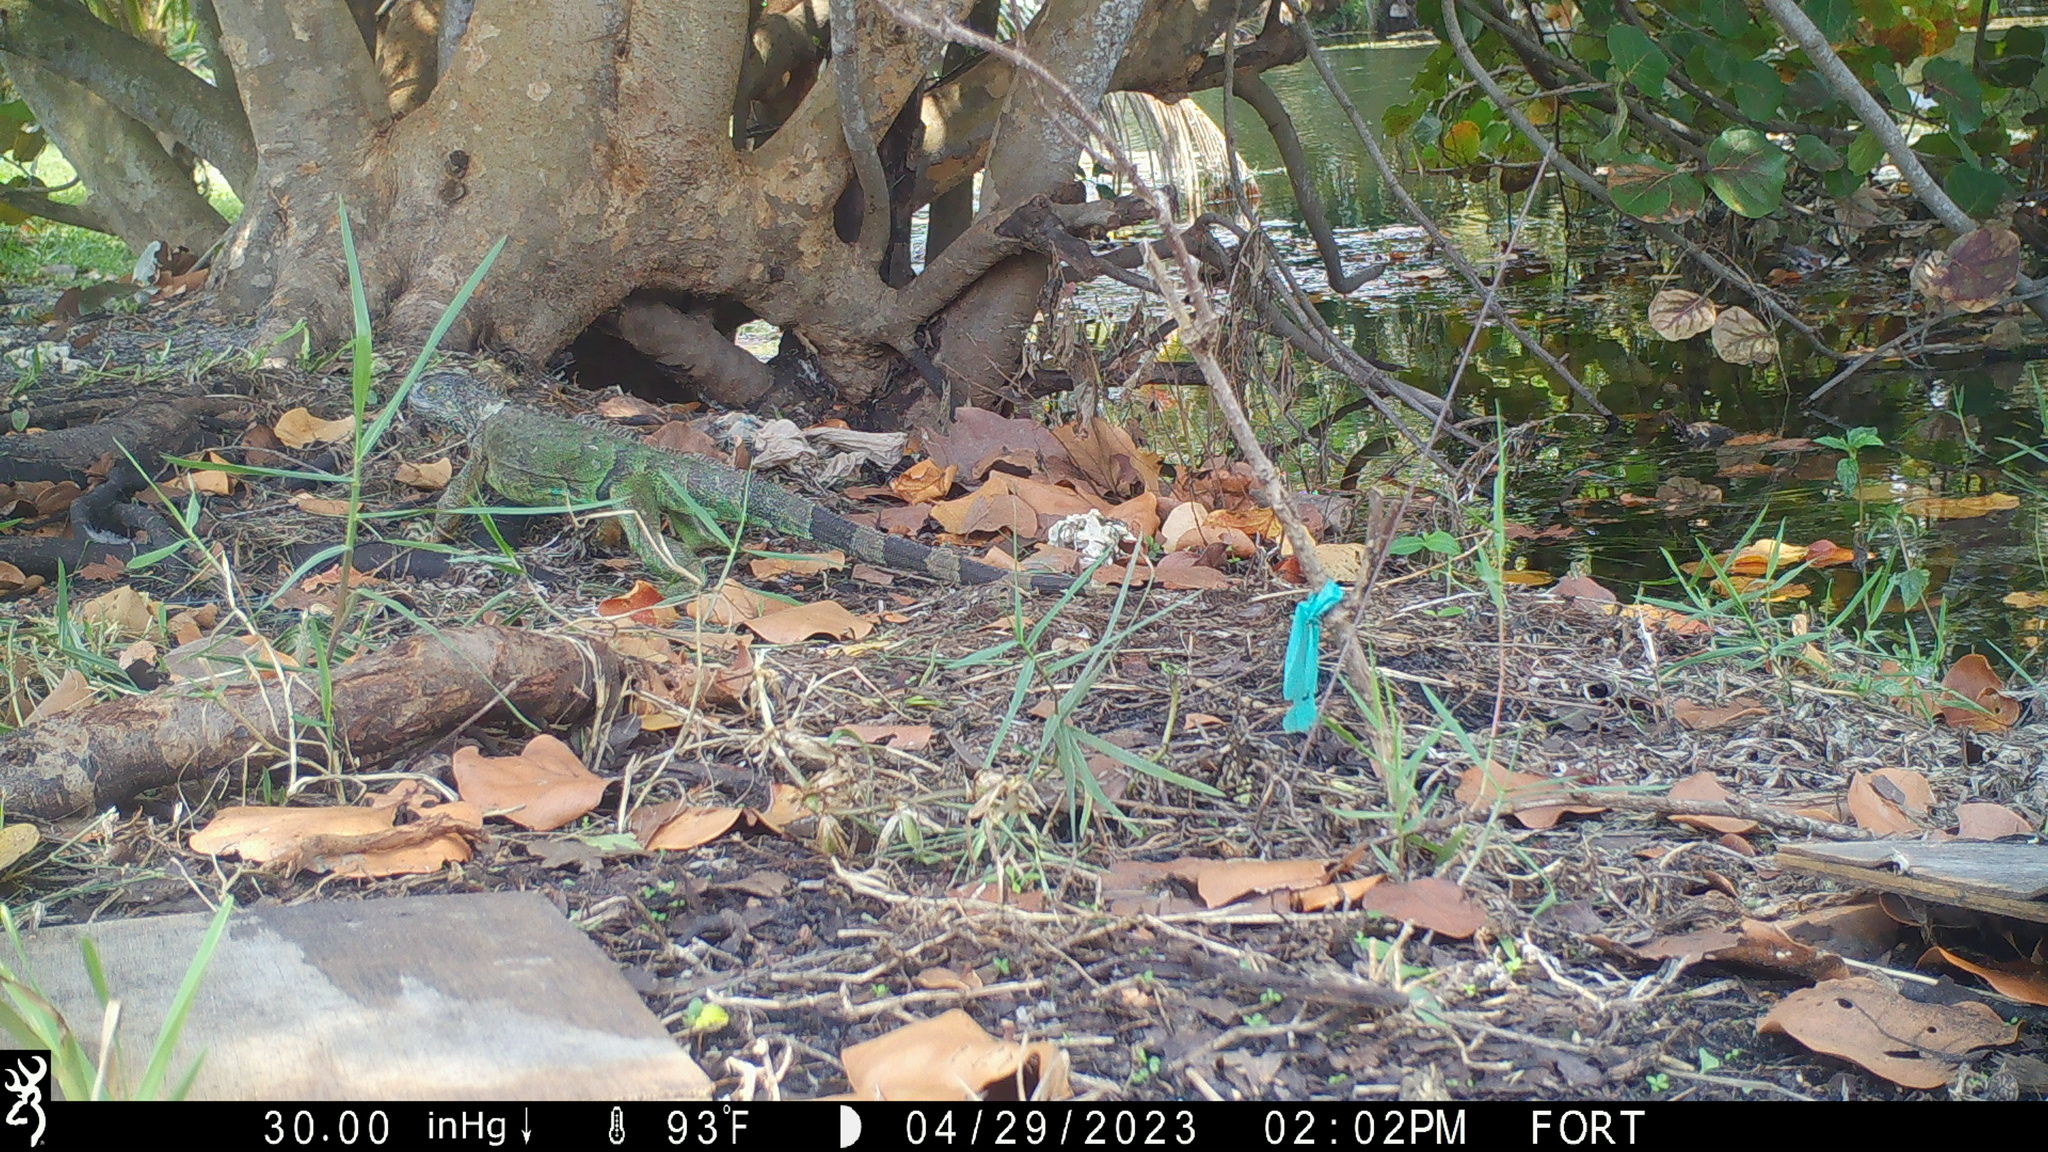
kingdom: Animalia
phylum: Chordata
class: Squamata
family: Iguanidae
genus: Iguana
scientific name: Iguana iguana
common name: Green iguana
